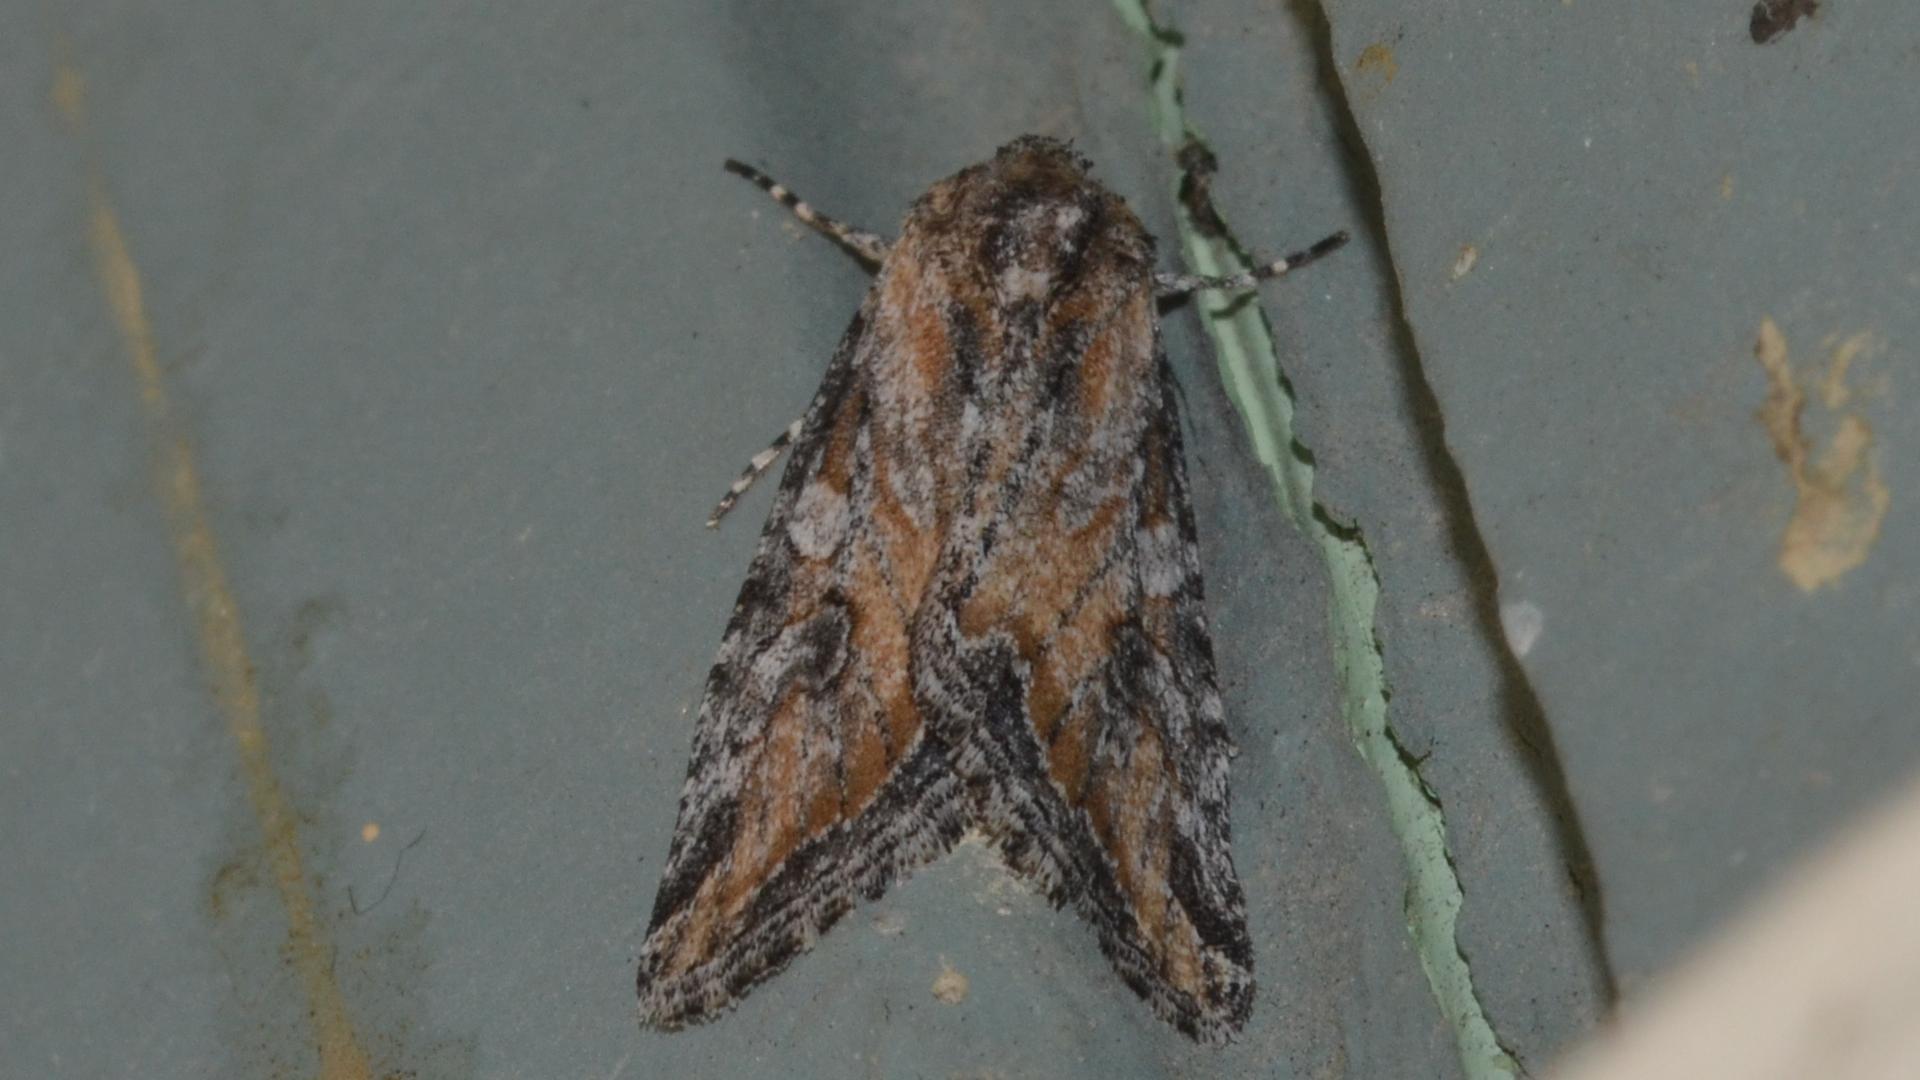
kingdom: Animalia
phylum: Arthropoda
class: Insecta
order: Lepidoptera
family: Noctuidae
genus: Hadenella
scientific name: Hadenella pergentilis
